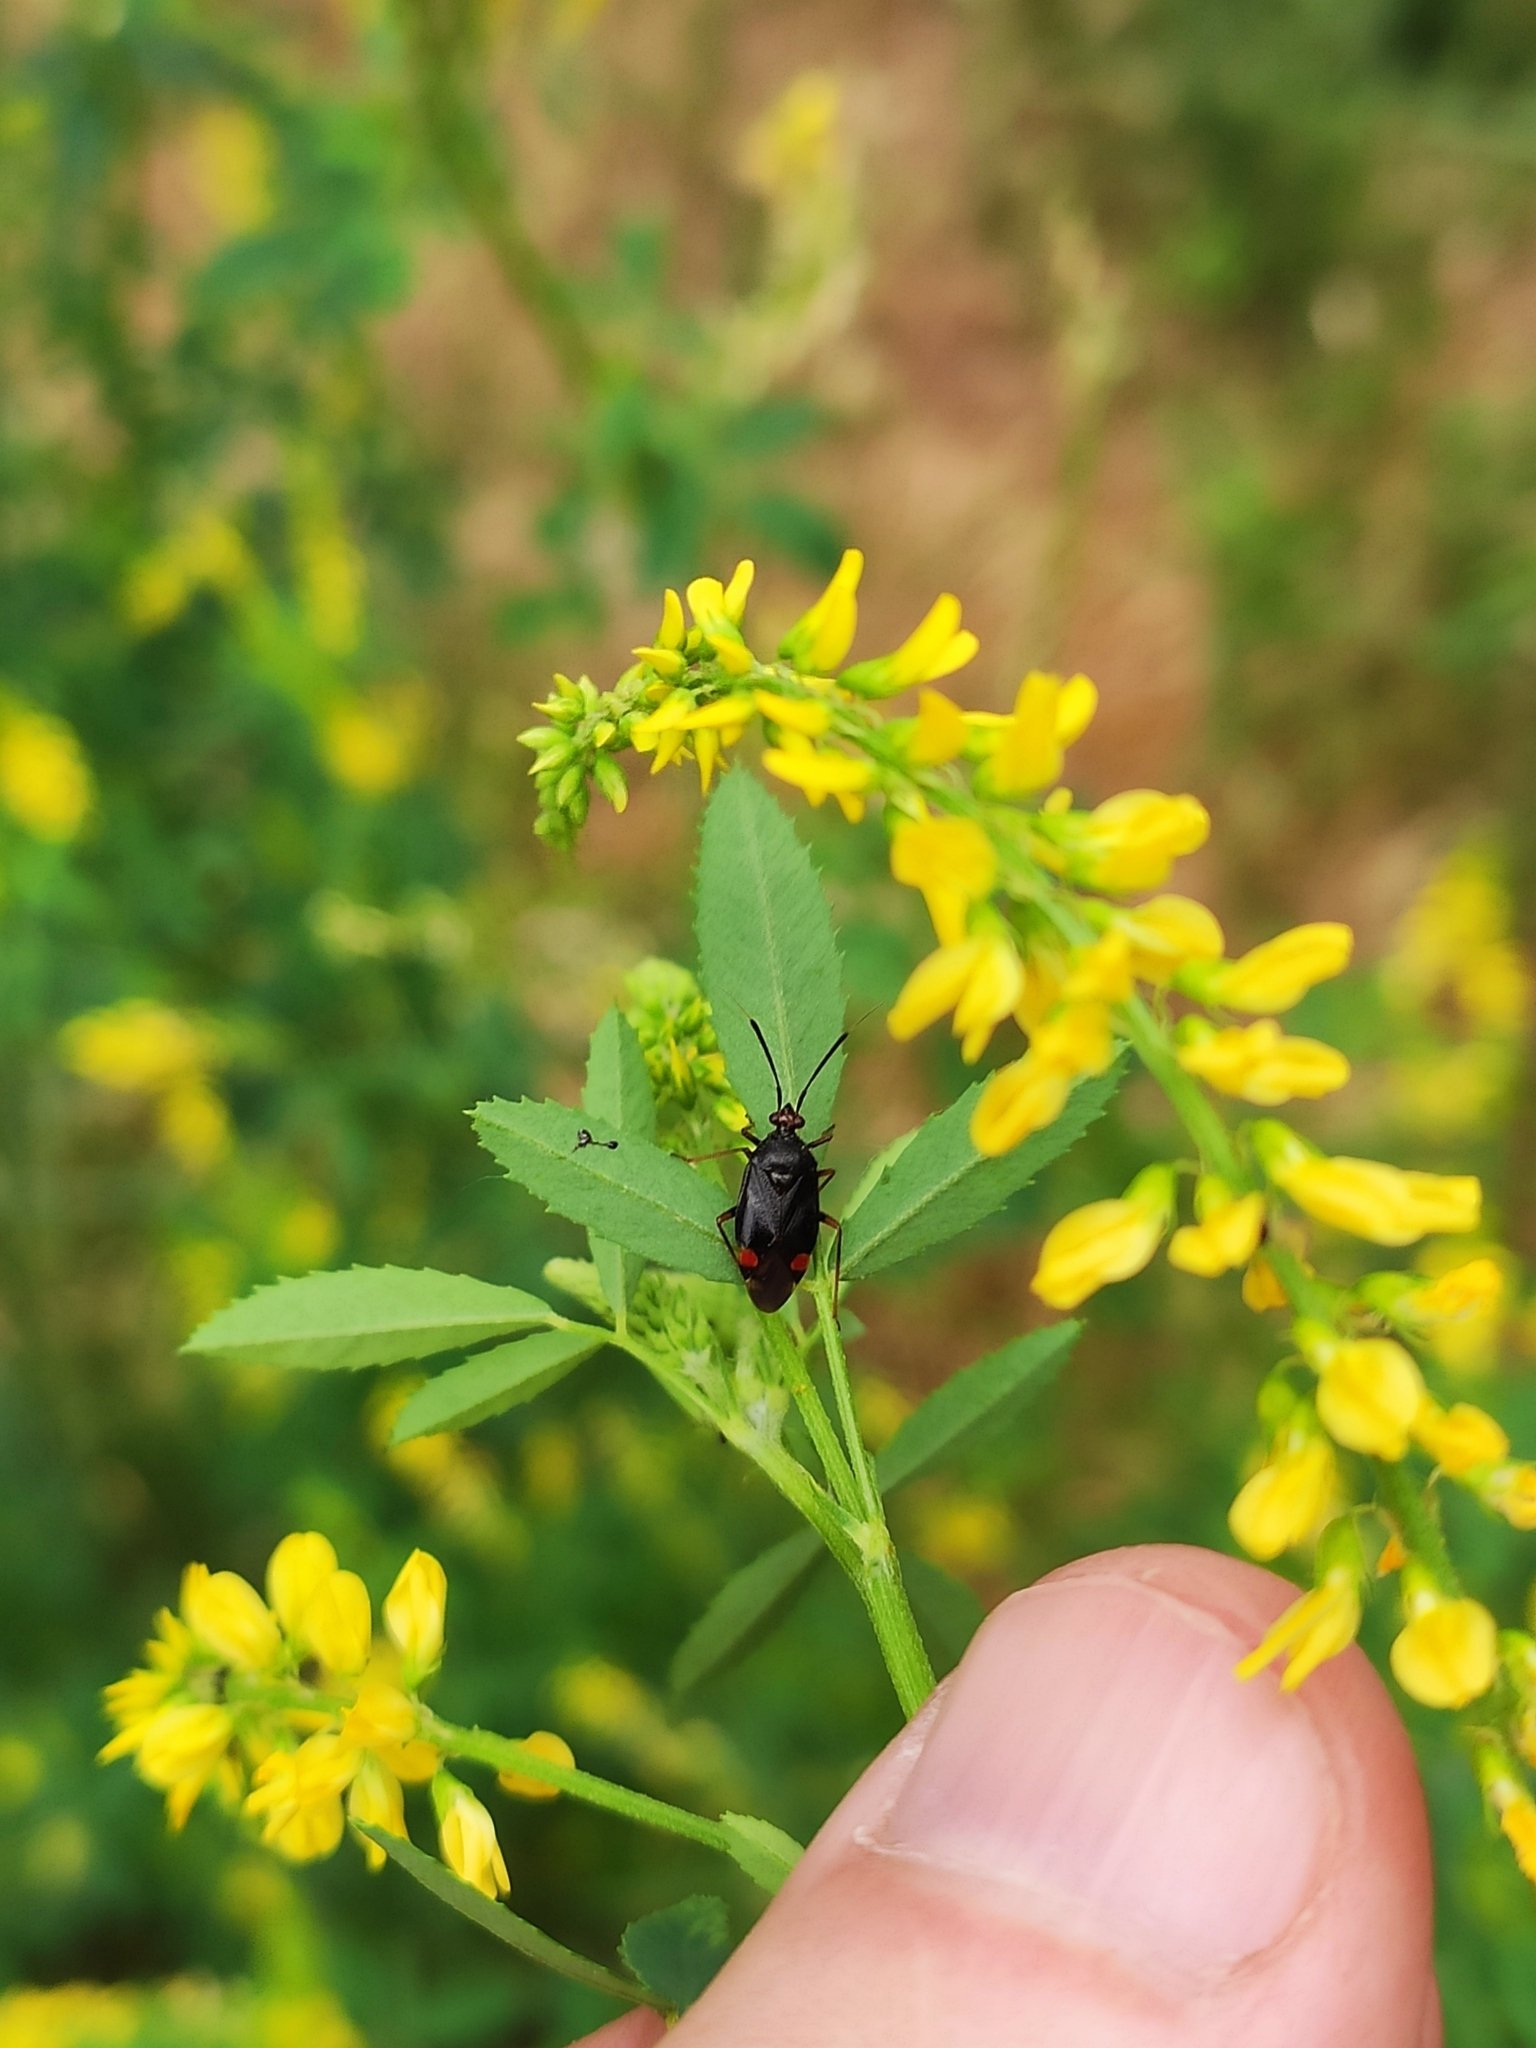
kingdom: Animalia
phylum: Arthropoda
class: Insecta
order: Hemiptera
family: Miridae
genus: Deraeocoris
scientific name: Deraeocoris ruber
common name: Plant bug
